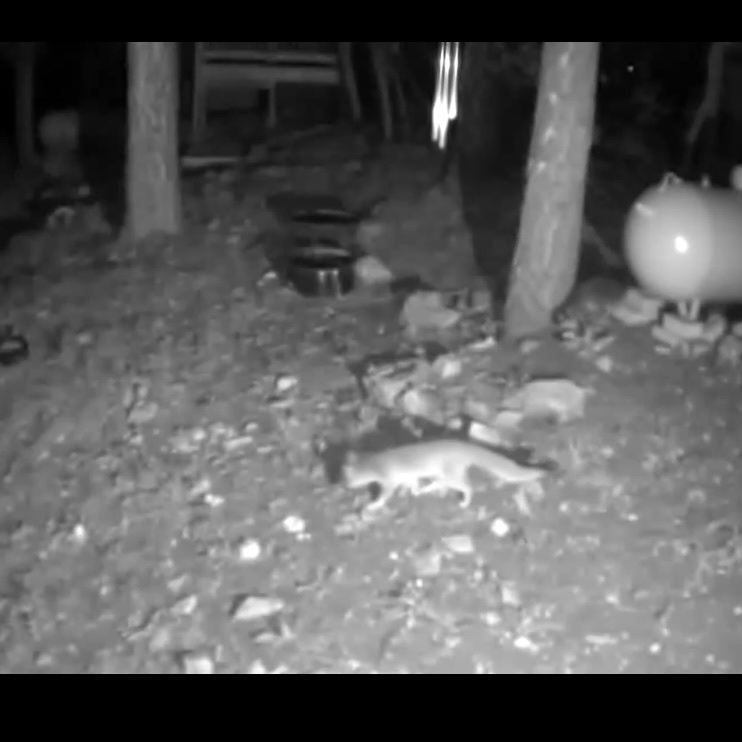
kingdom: Animalia
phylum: Chordata
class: Mammalia
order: Carnivora
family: Canidae
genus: Urocyon
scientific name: Urocyon cinereoargenteus
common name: Gray fox
